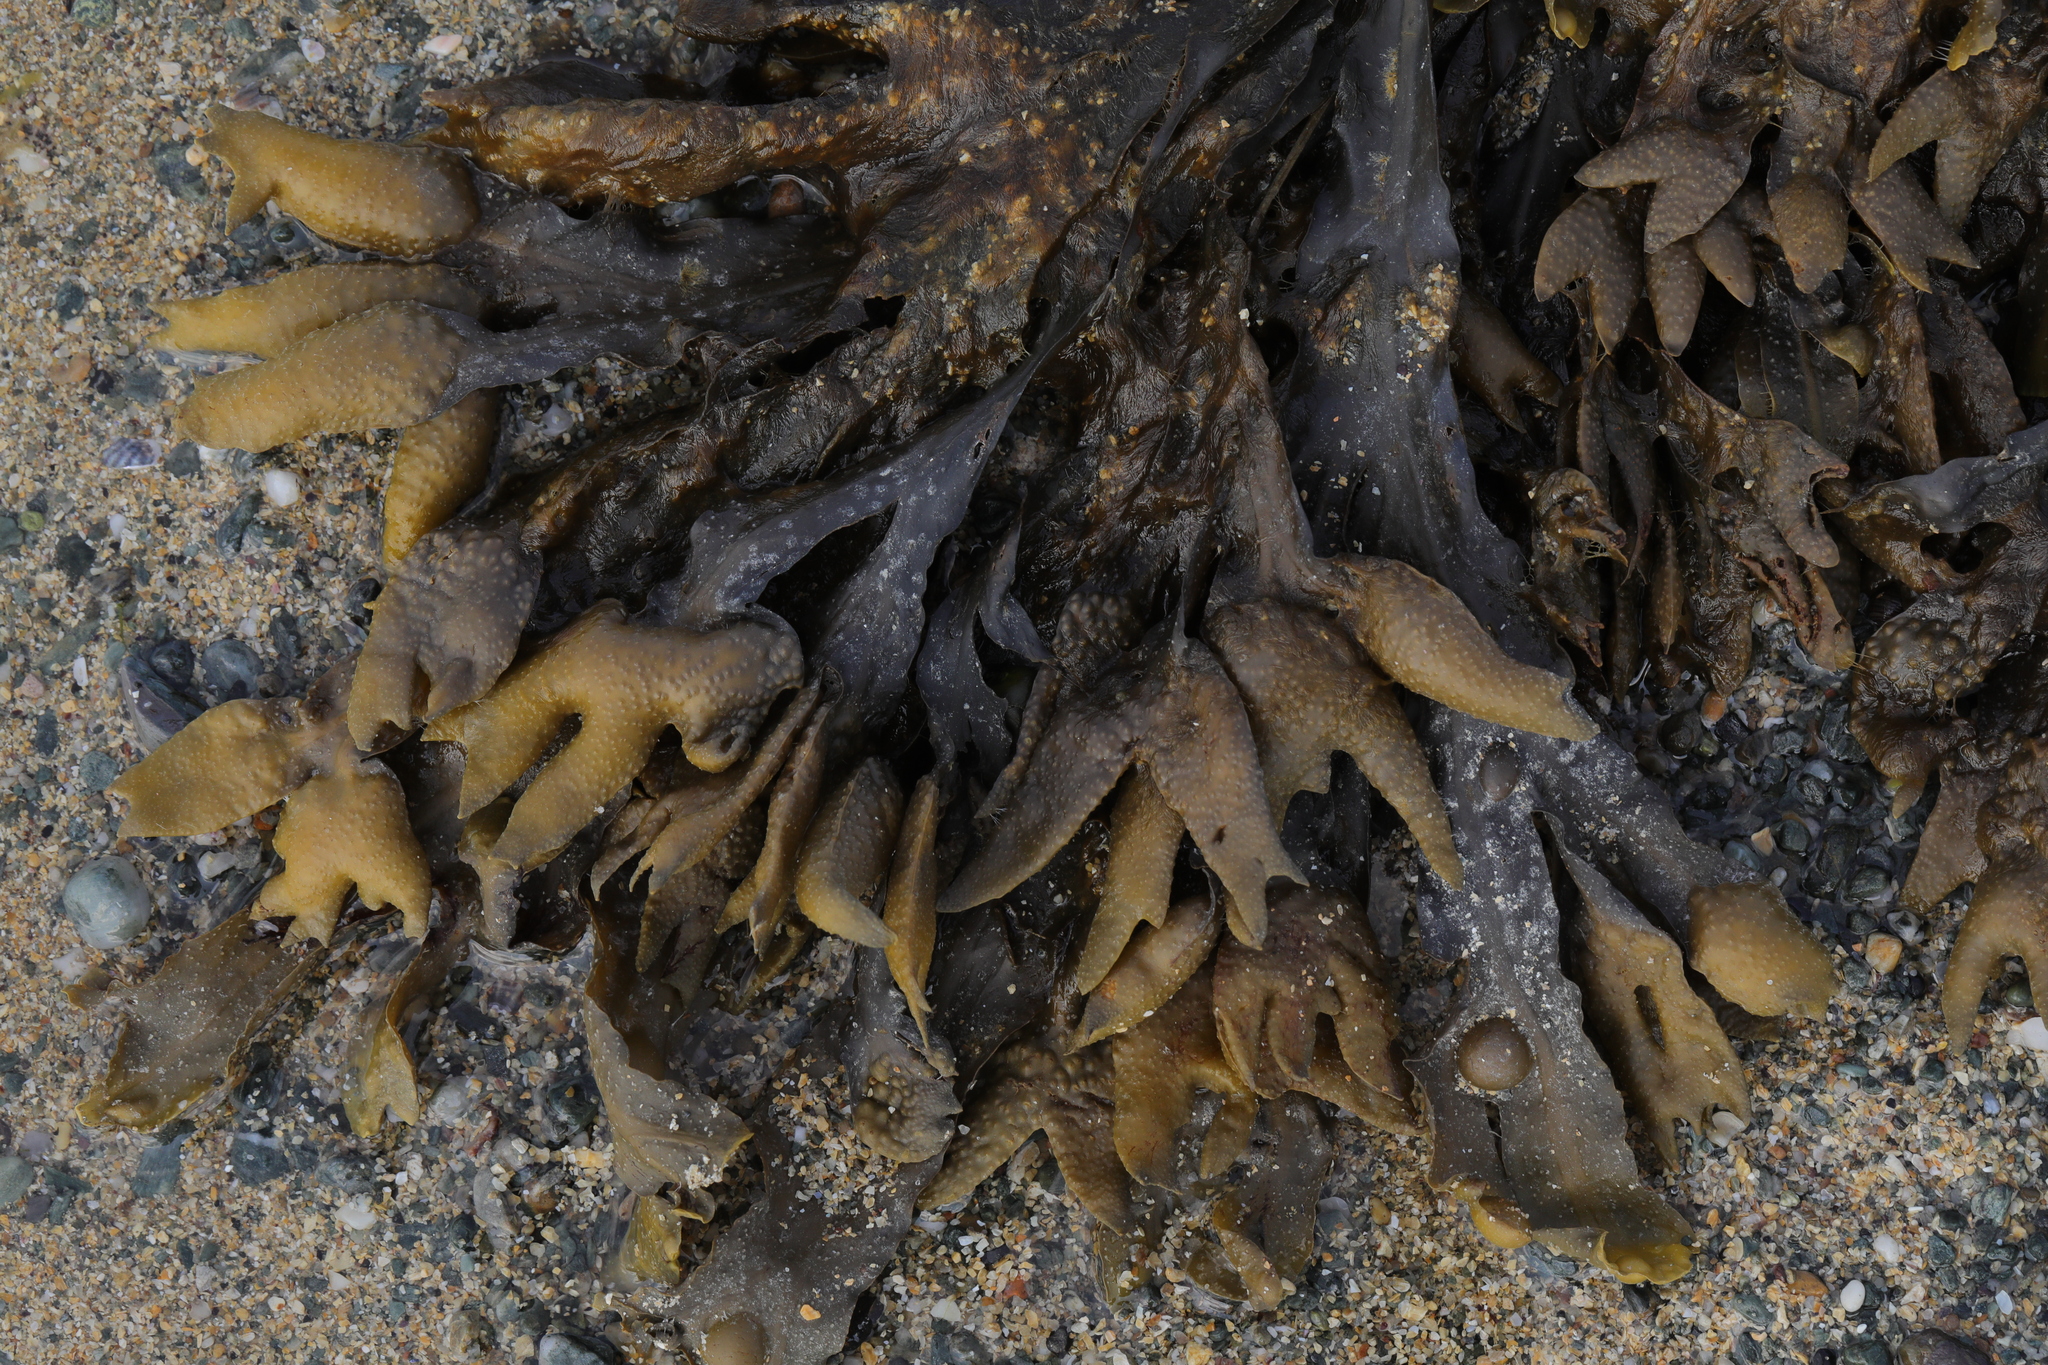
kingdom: Chromista
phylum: Ochrophyta
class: Phaeophyceae
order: Fucales
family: Fucaceae
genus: Fucus
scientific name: Fucus vesiculosus
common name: Bladder wrack
